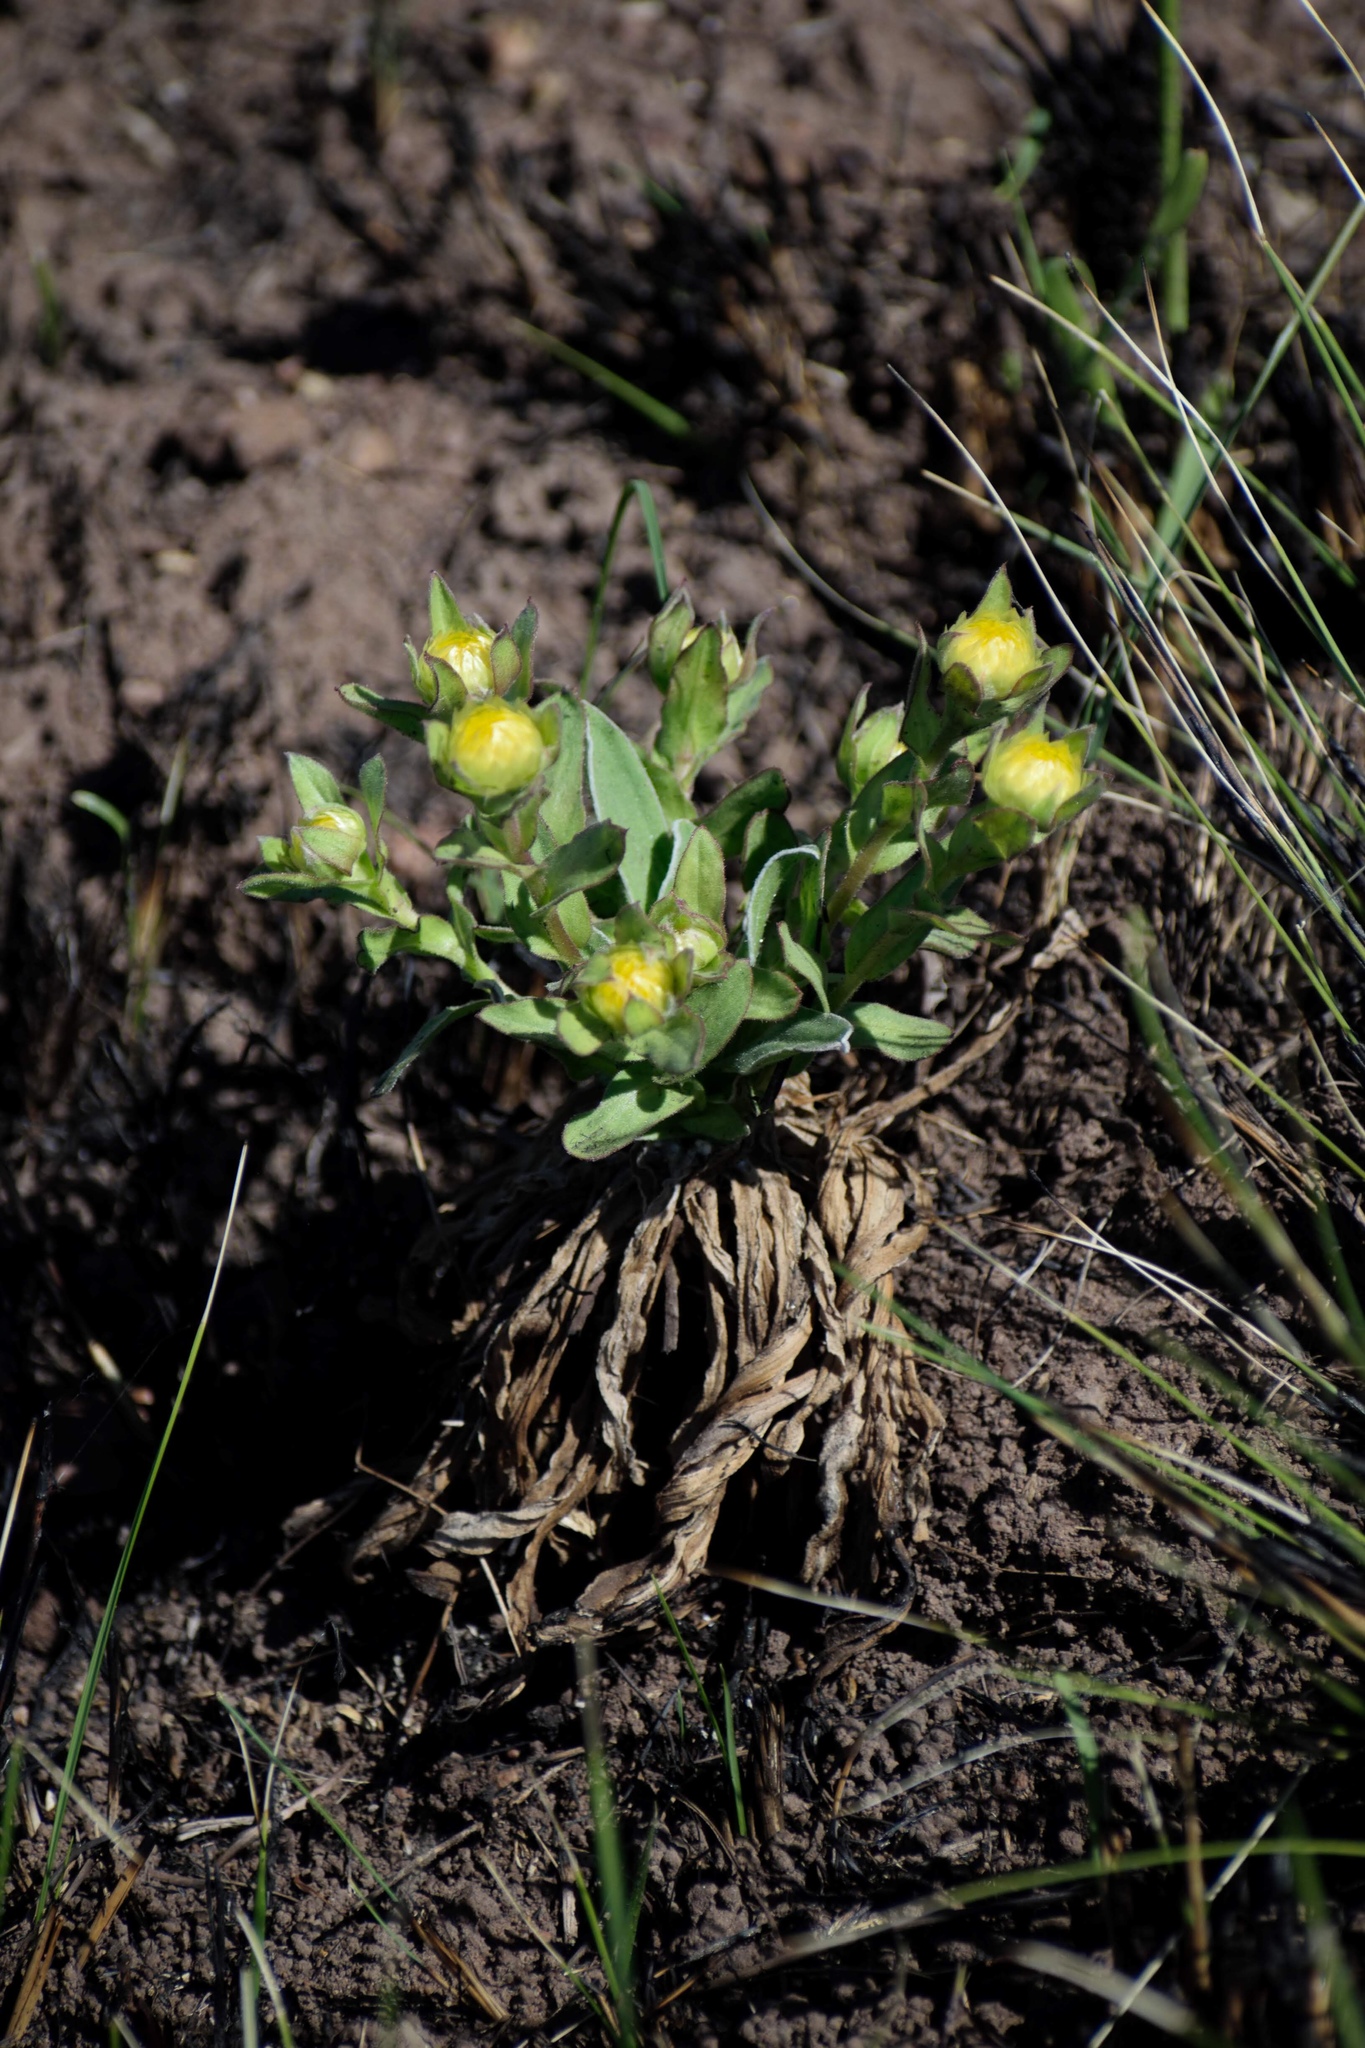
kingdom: Plantae
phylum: Tracheophyta
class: Magnoliopsida
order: Asterales
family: Asteraceae
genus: Helichrysum
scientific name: Helichrysum aureum
